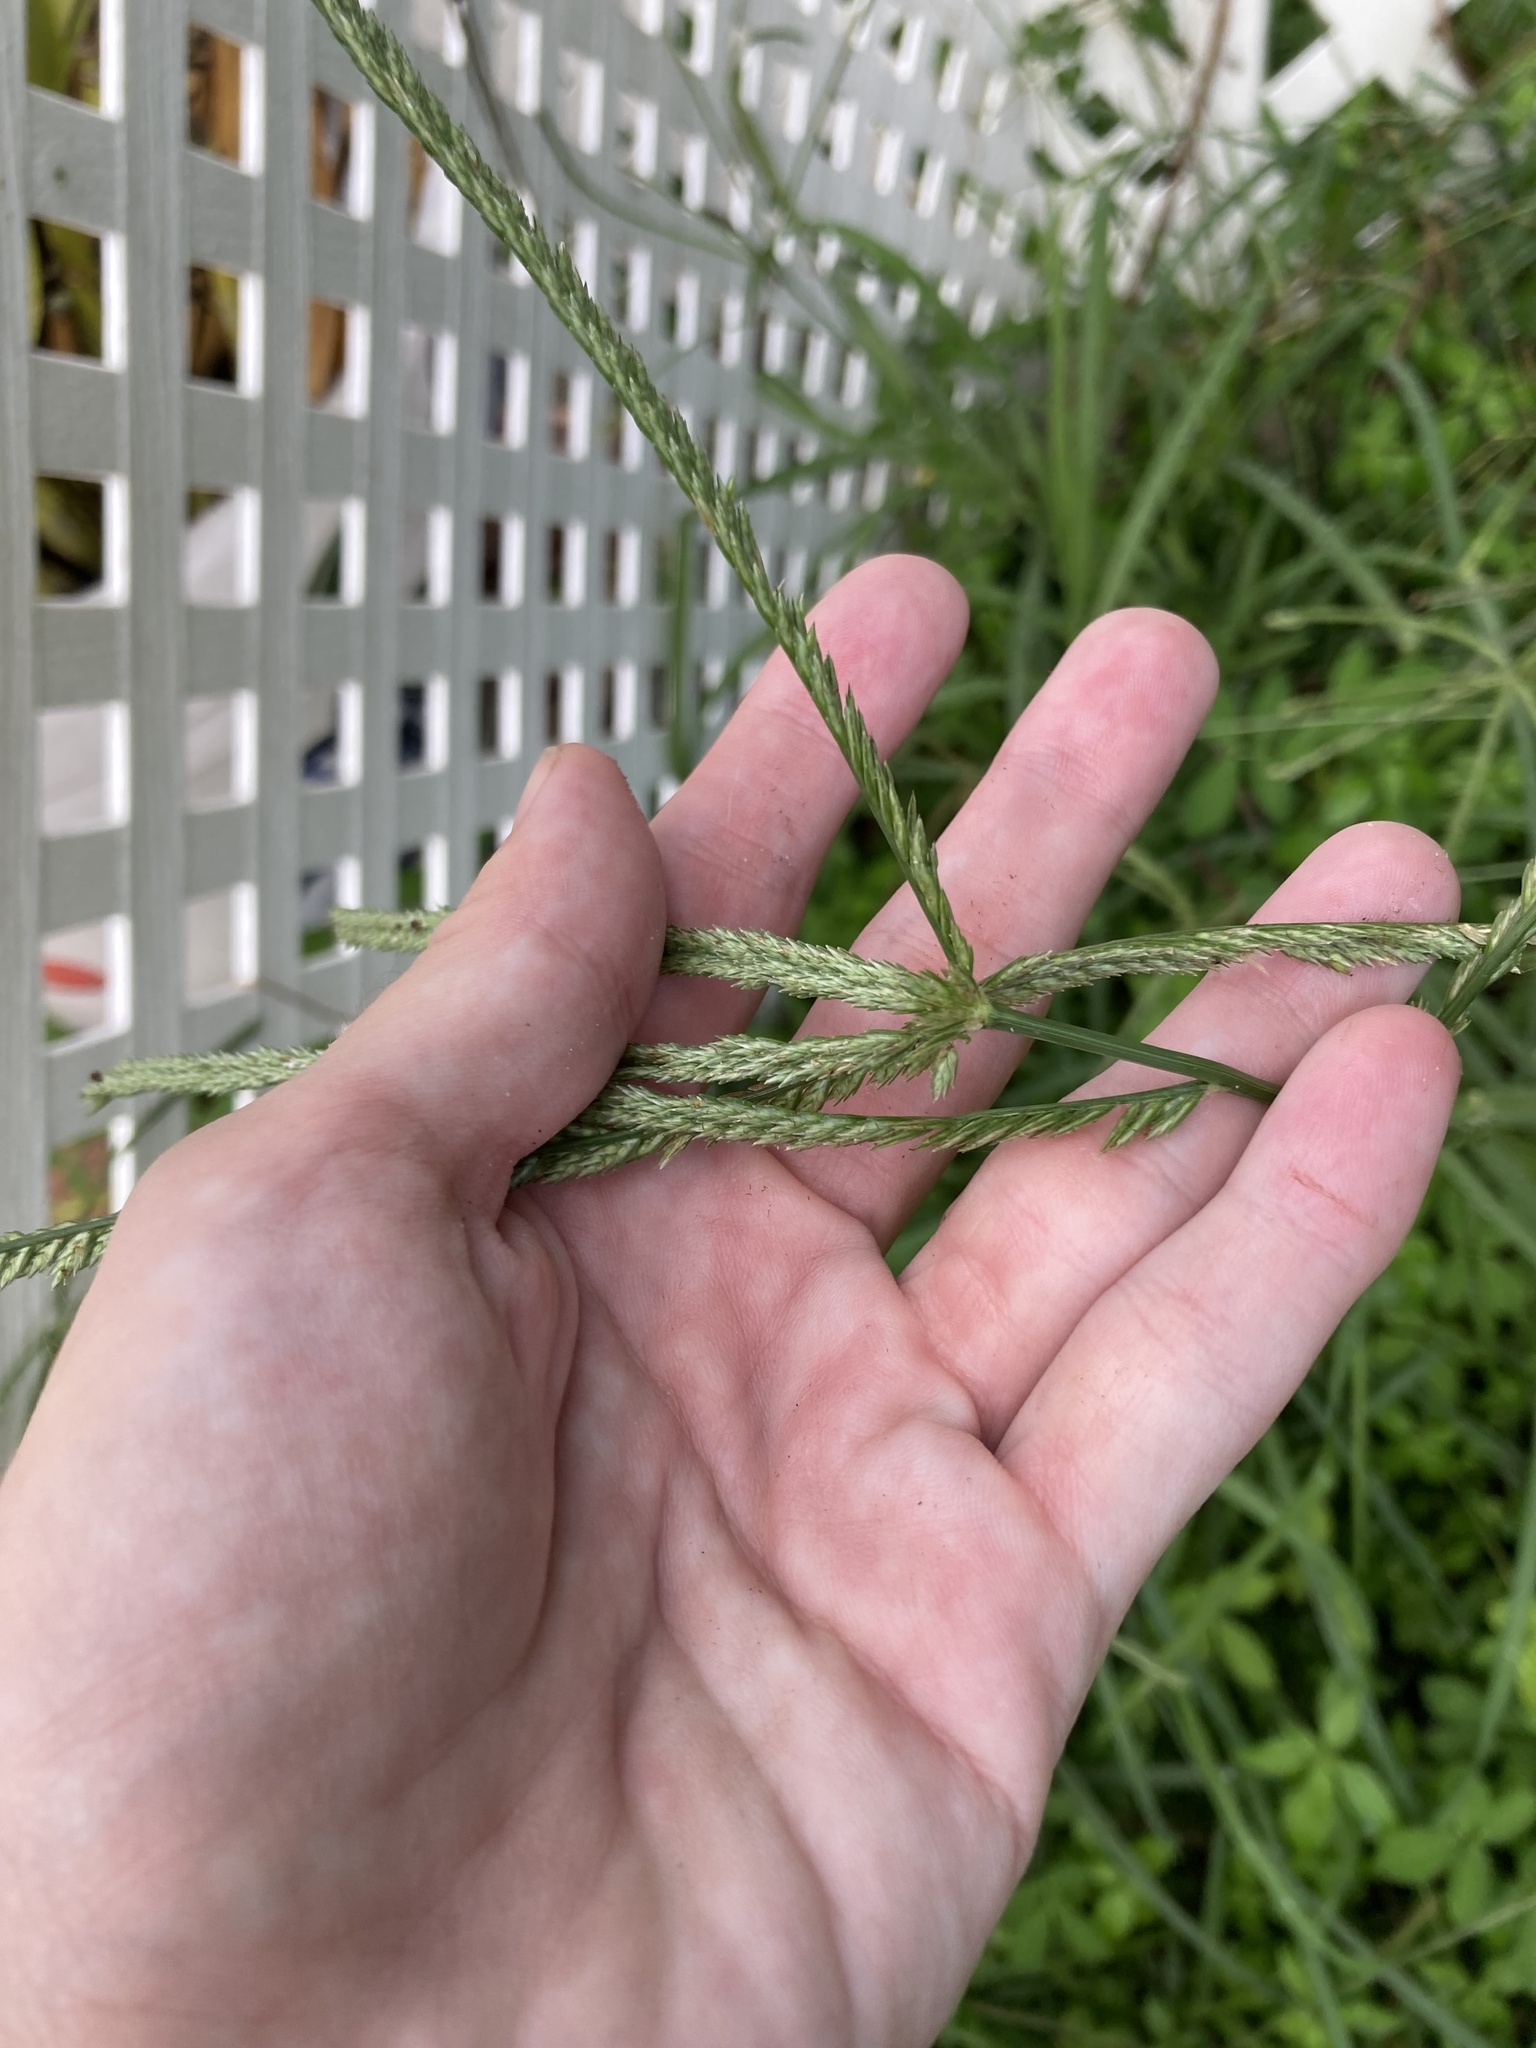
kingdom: Plantae
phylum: Tracheophyta
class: Liliopsida
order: Poales
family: Poaceae
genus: Eleusine
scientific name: Eleusine indica
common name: Yard-grass
